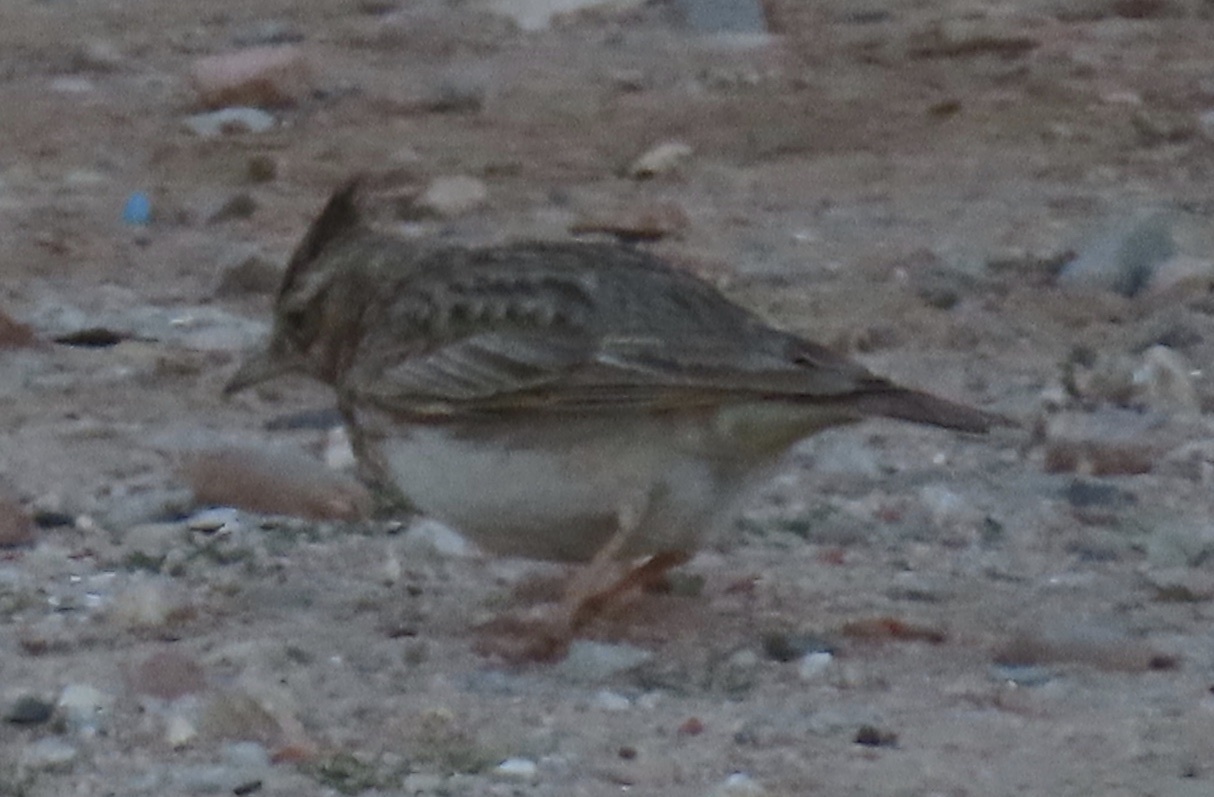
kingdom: Animalia
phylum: Chordata
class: Aves
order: Passeriformes
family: Alaudidae
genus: Galerida
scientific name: Galerida cristata
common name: Crested lark
